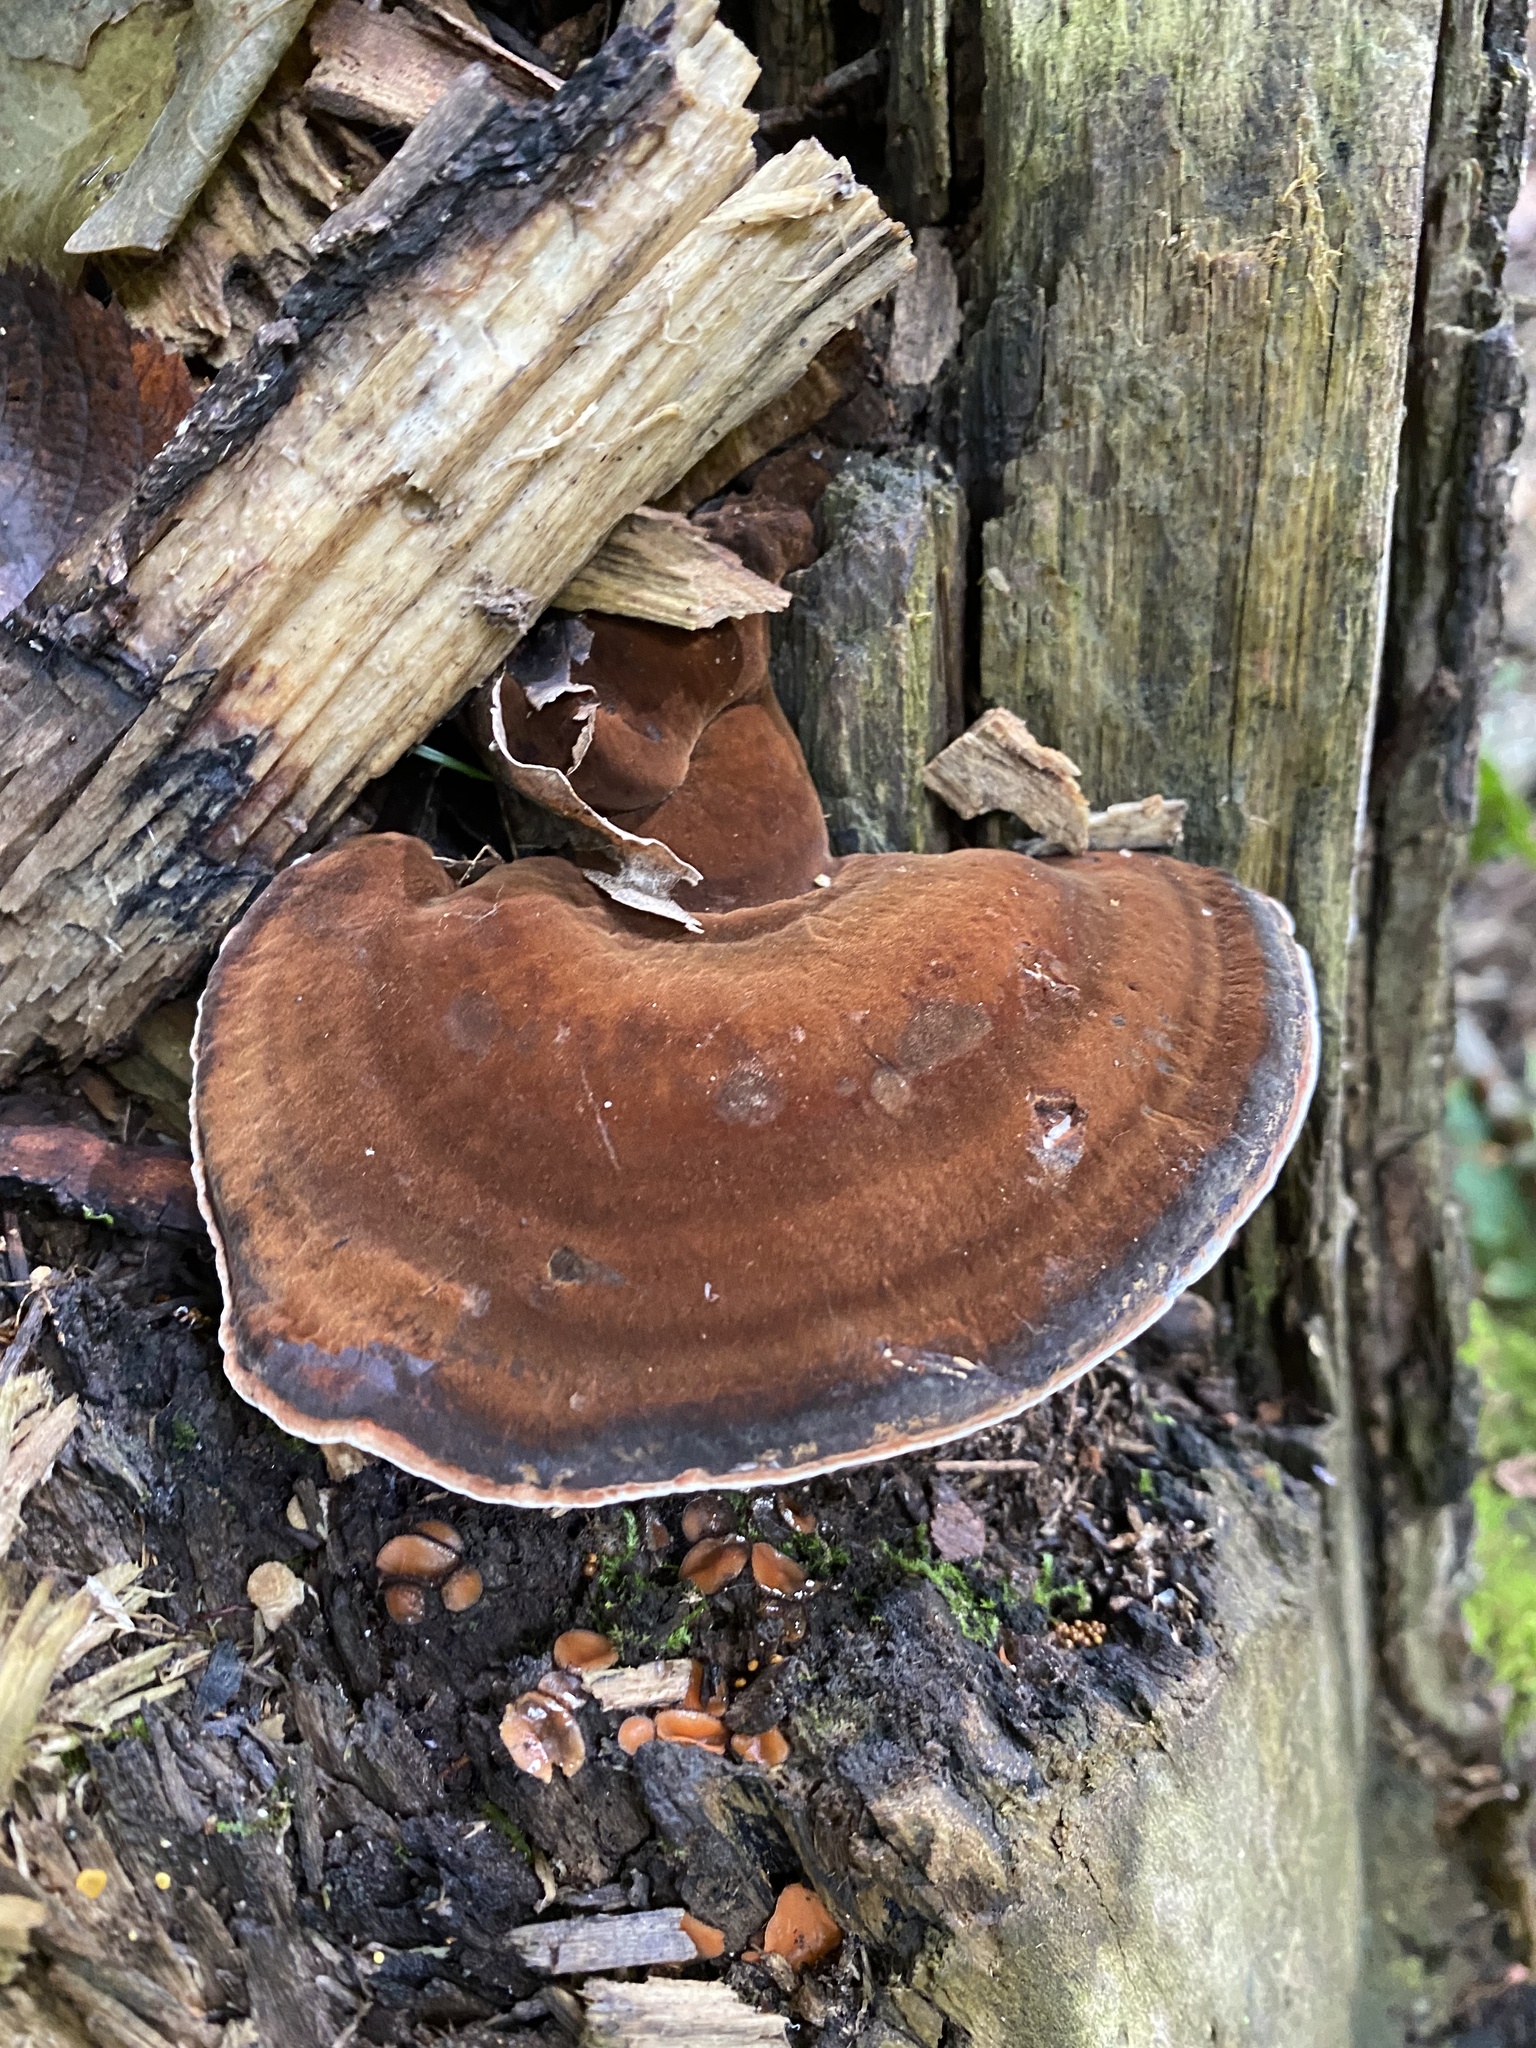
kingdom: Fungi
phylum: Basidiomycota
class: Agaricomycetes
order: Polyporales
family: Ischnodermataceae
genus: Ischnoderma
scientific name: Ischnoderma resinosum
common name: Resinous polypore
